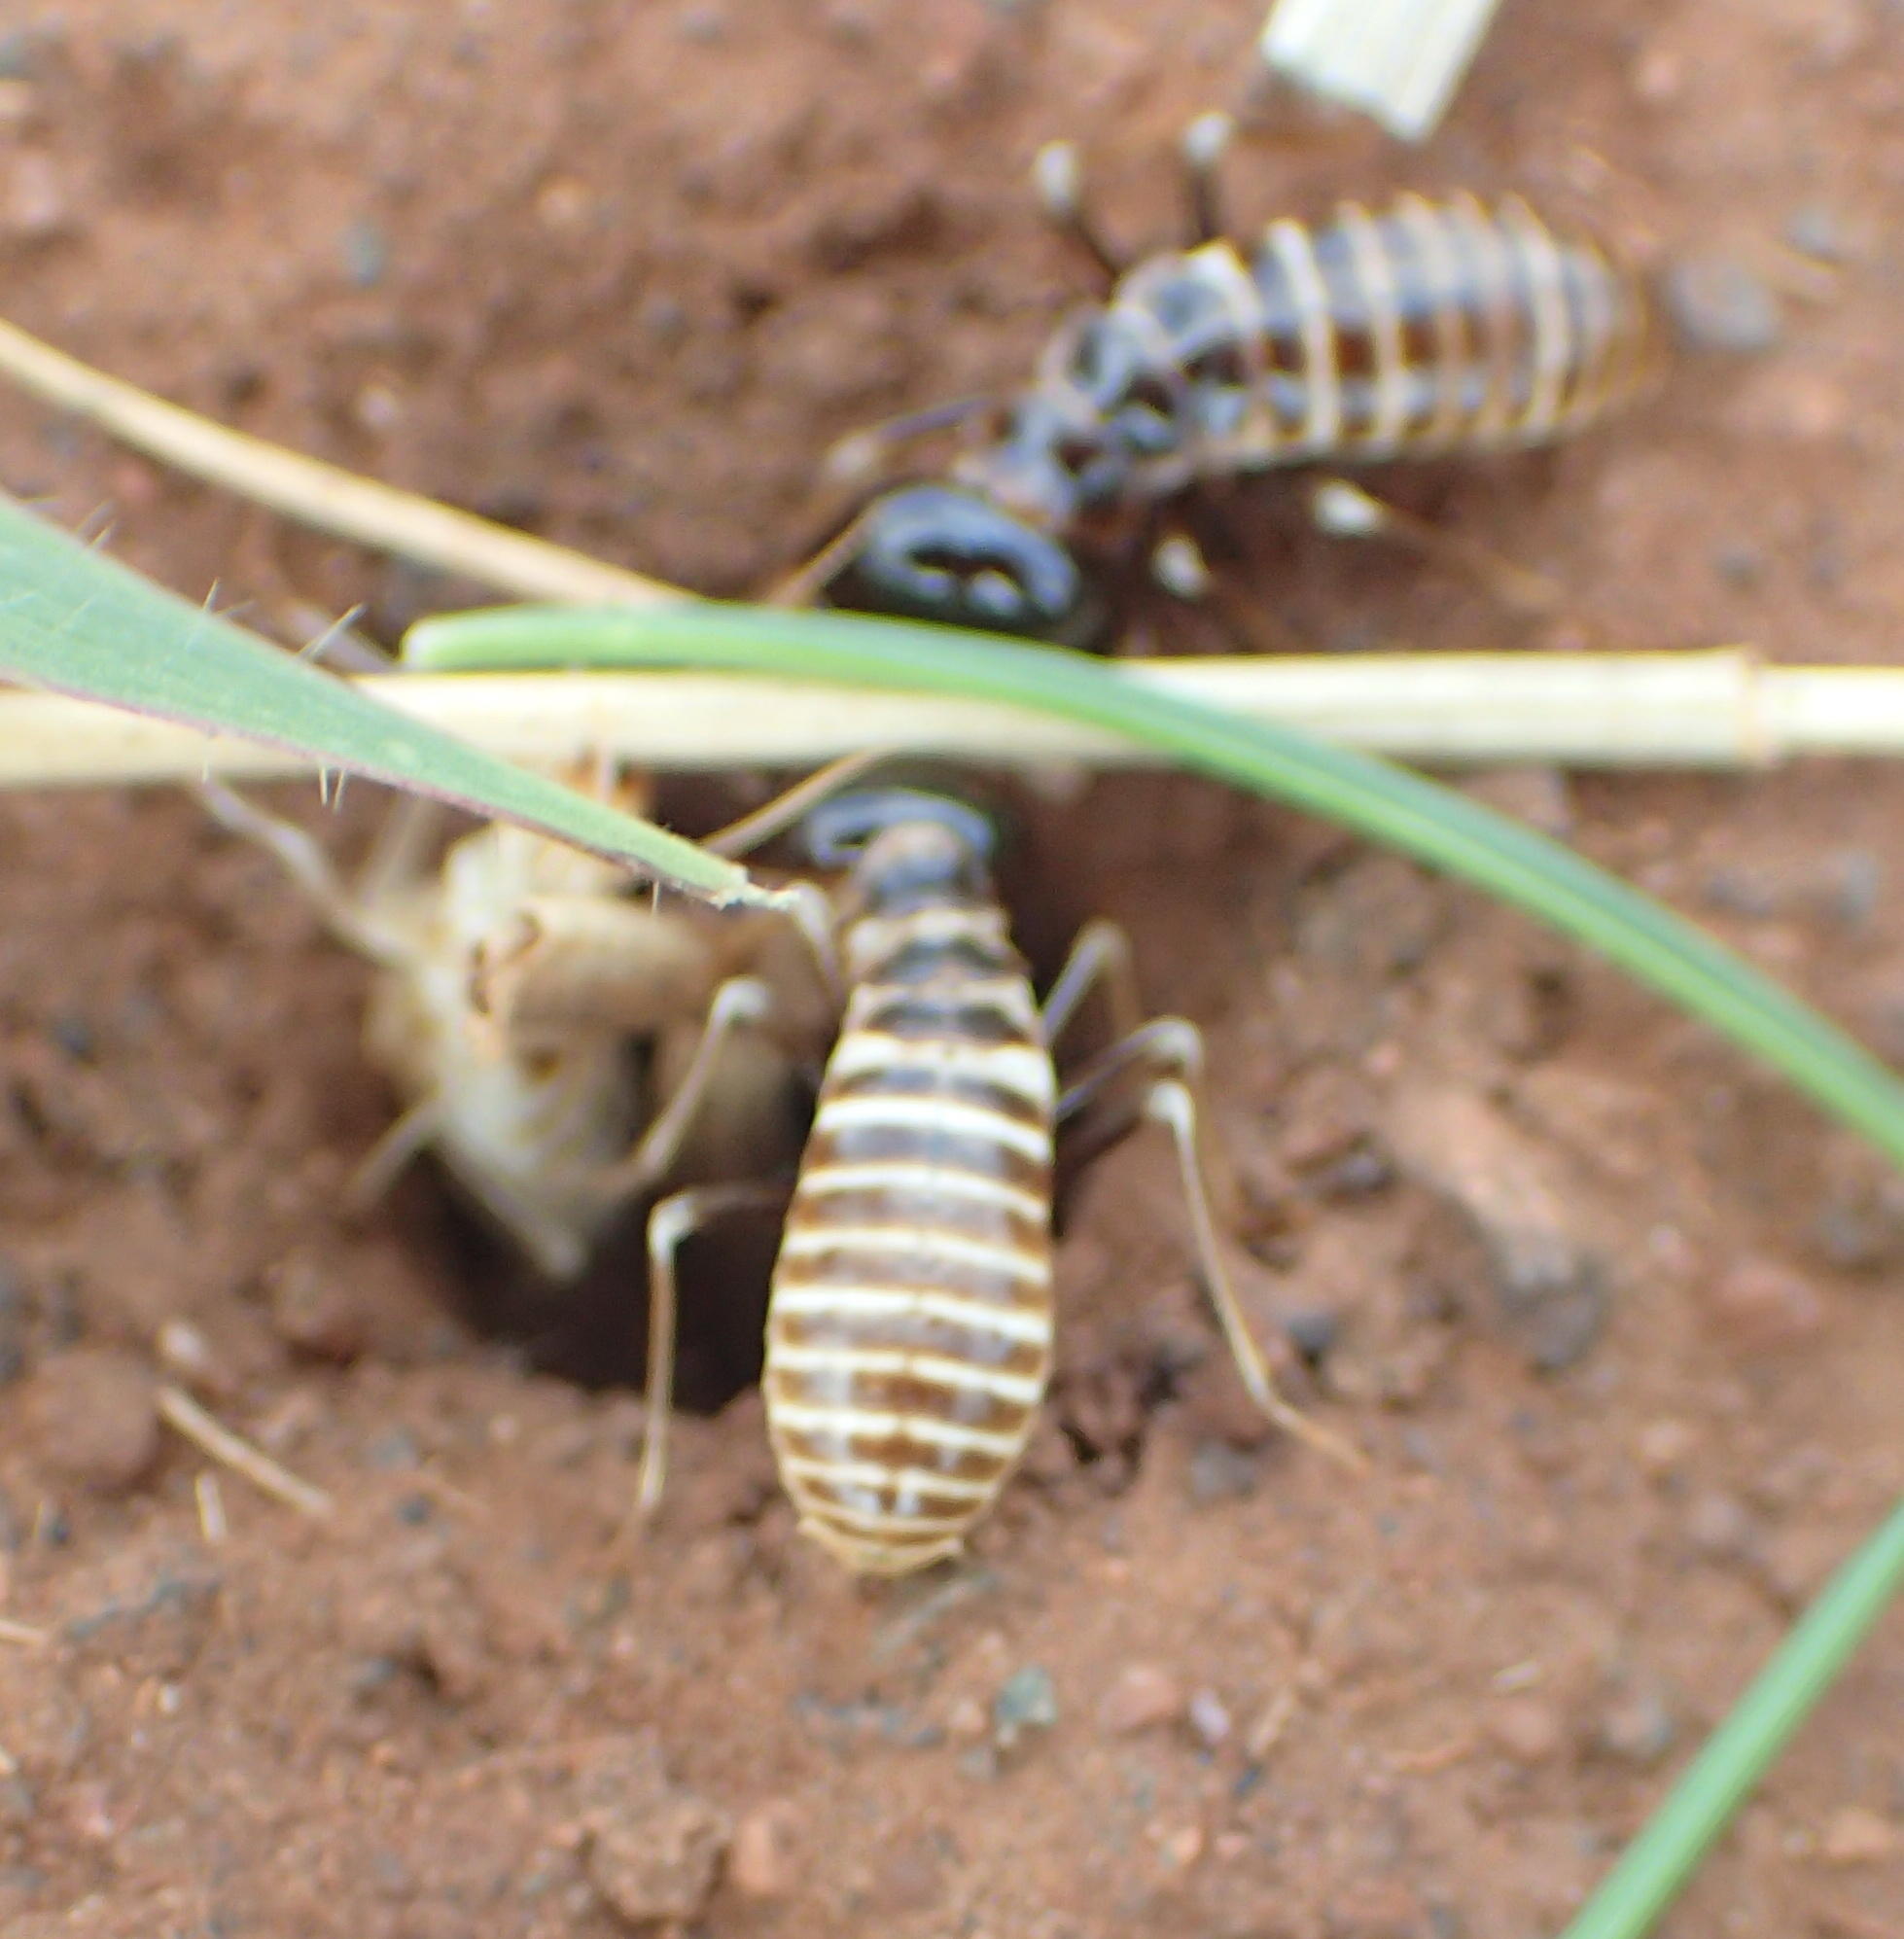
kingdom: Animalia
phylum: Arthropoda
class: Insecta
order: Blattodea
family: Hodotermitidae
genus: Hodotermes
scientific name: Hodotermes mossambicus
